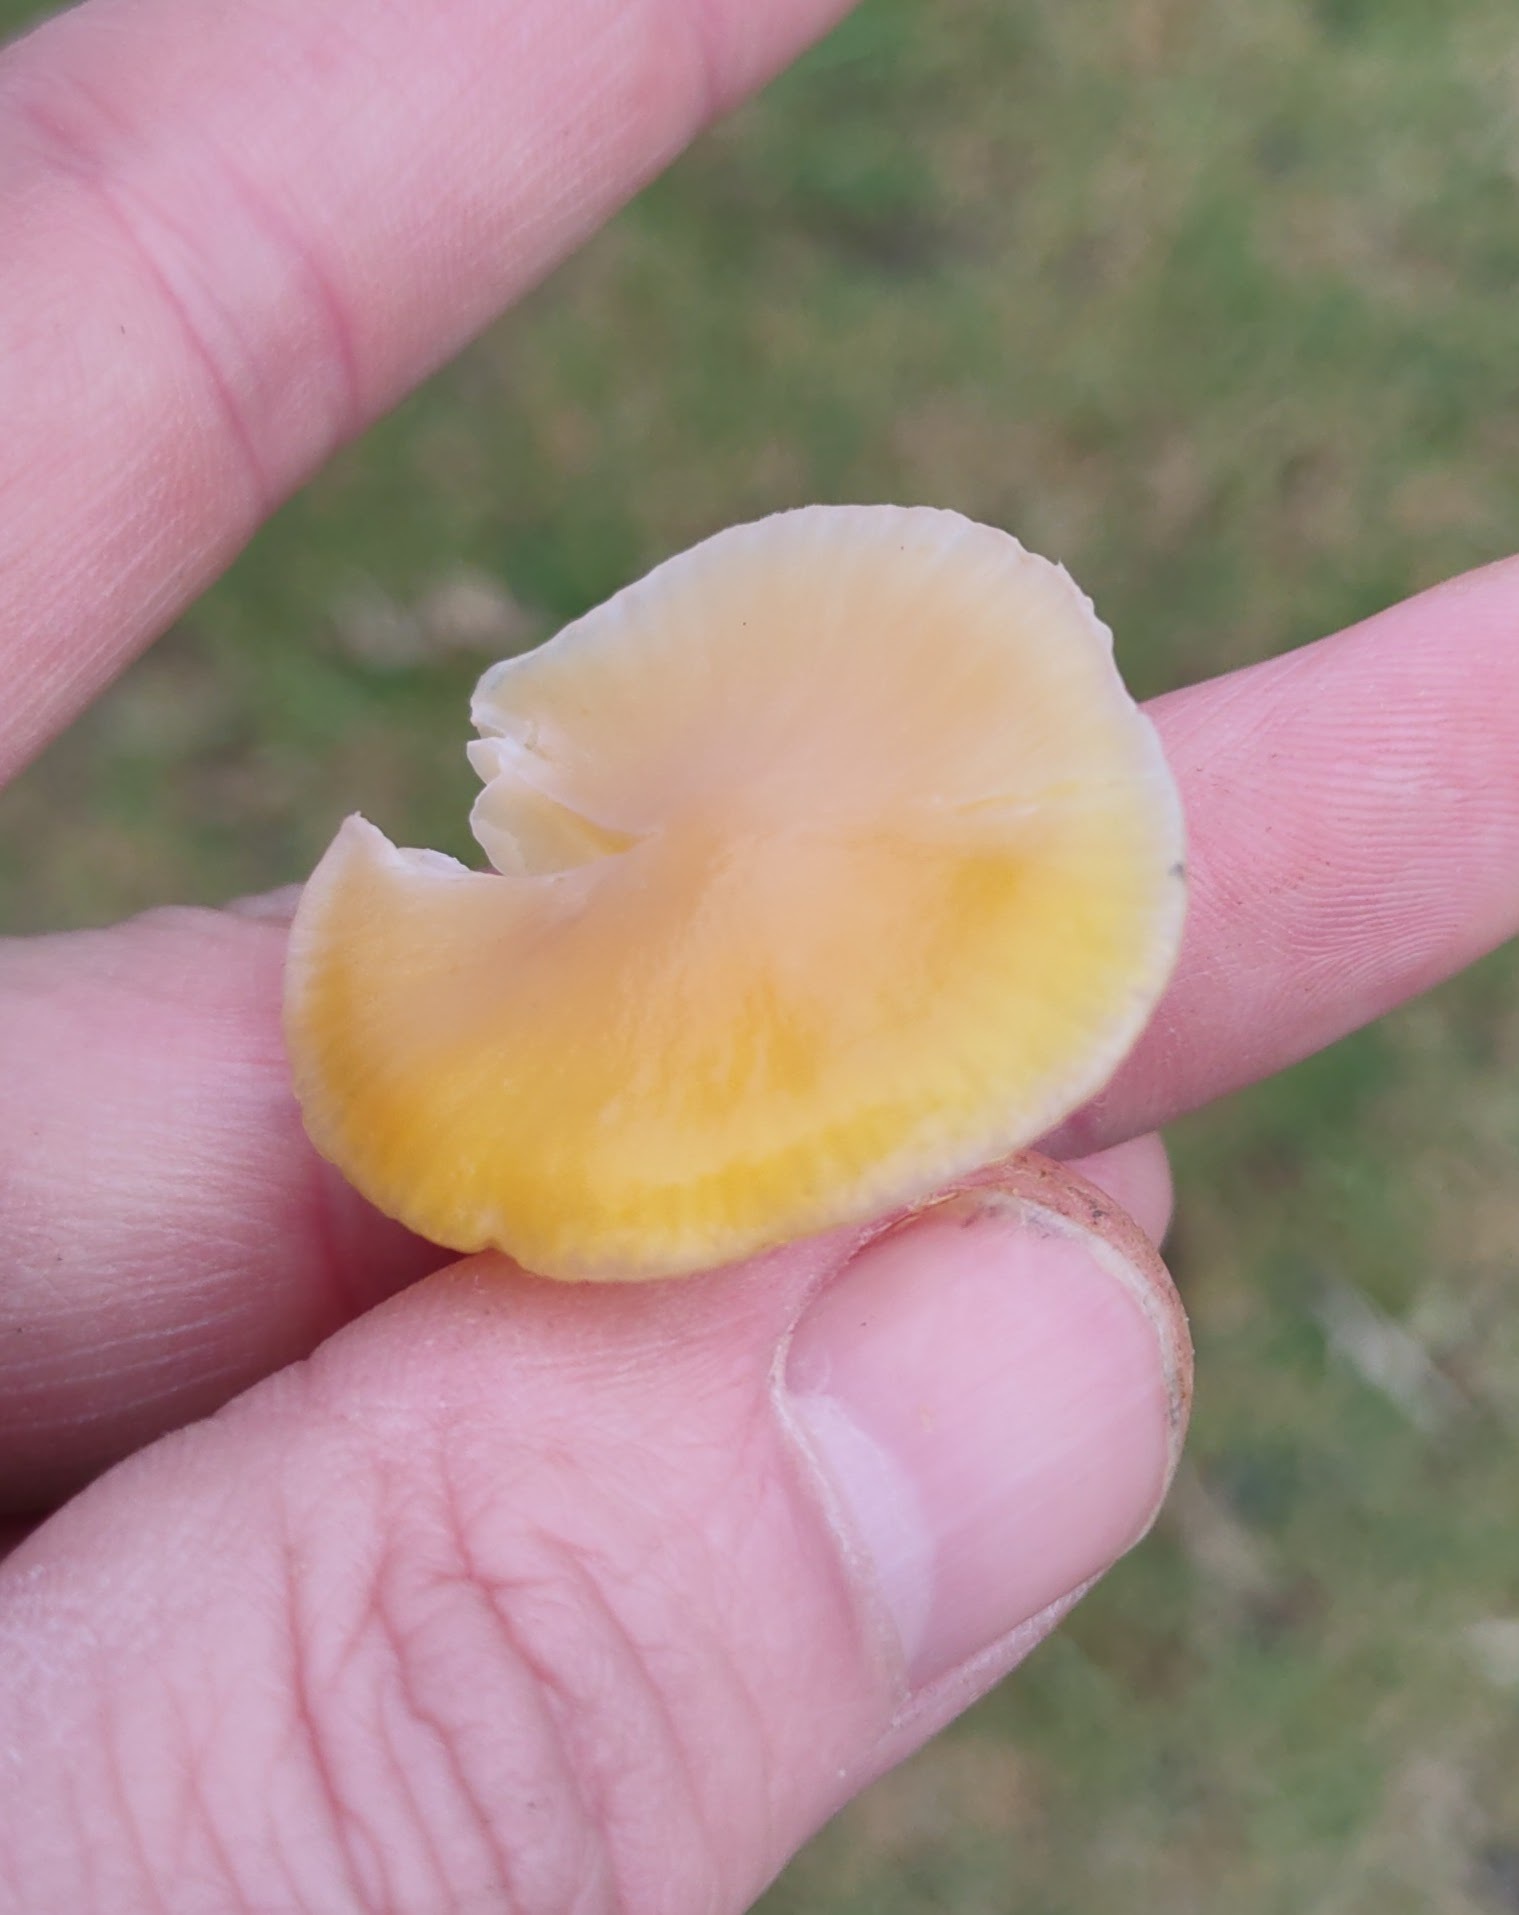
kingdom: Fungi
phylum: Basidiomycota
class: Agaricomycetes
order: Agaricales
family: Hygrophoraceae
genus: Hygrocybe
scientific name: Hygrocybe chlorophana
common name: Golden waxcap
